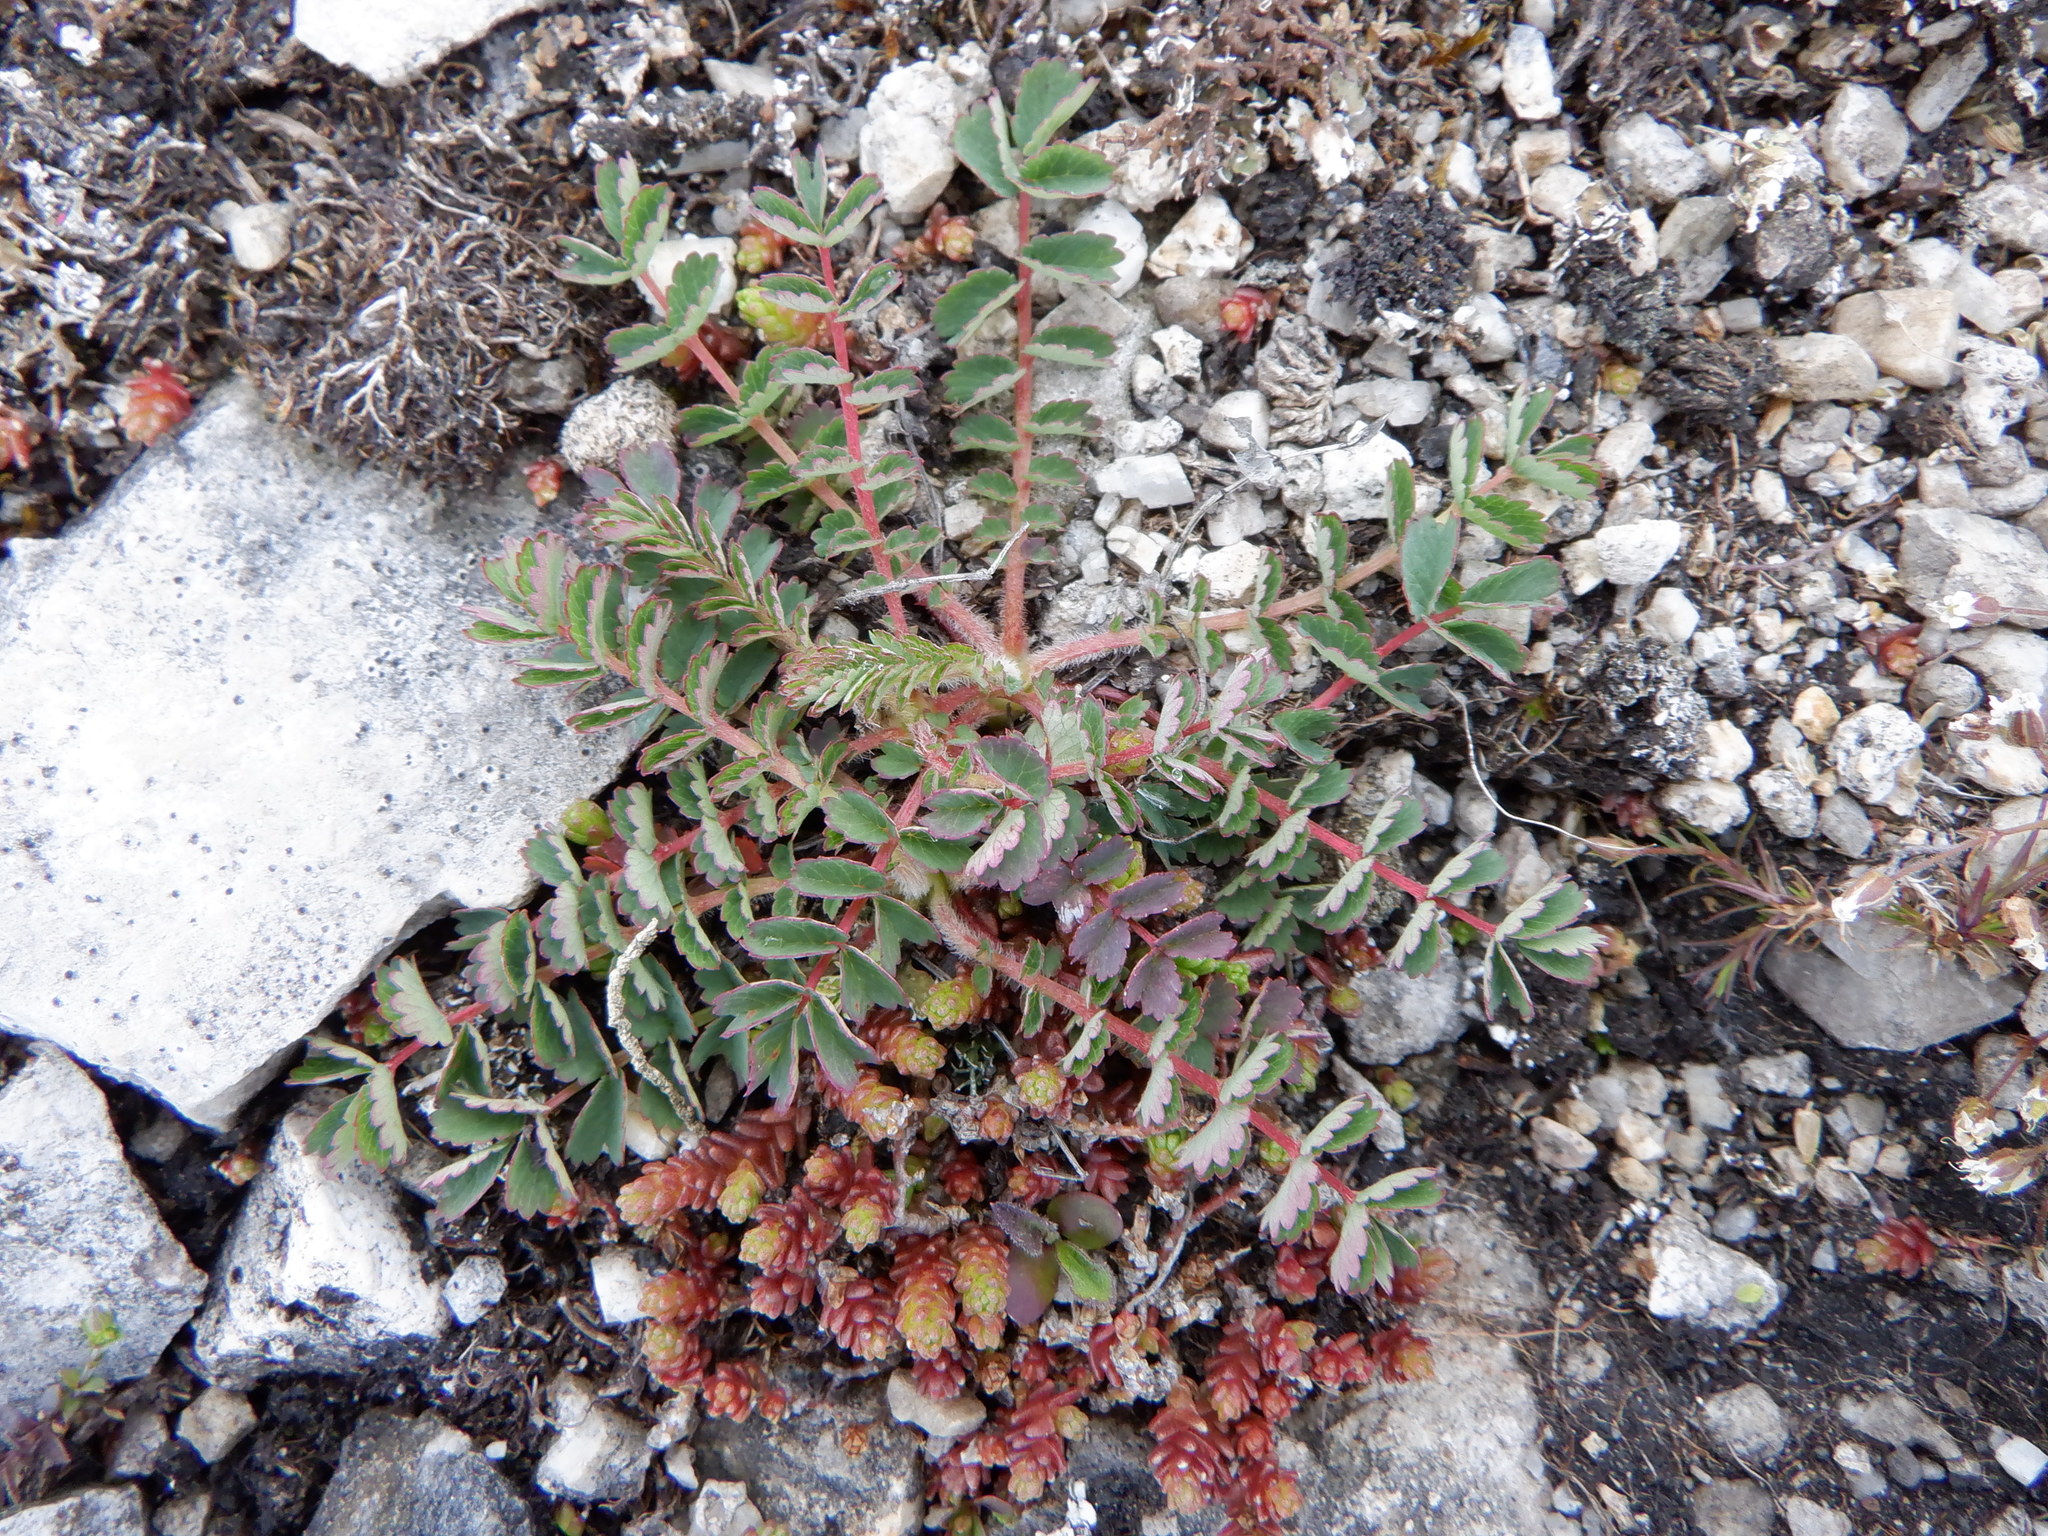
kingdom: Plantae
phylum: Tracheophyta
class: Magnoliopsida
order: Rosales
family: Rosaceae
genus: Poterium
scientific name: Poterium sanguisorba
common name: Salad burnet
